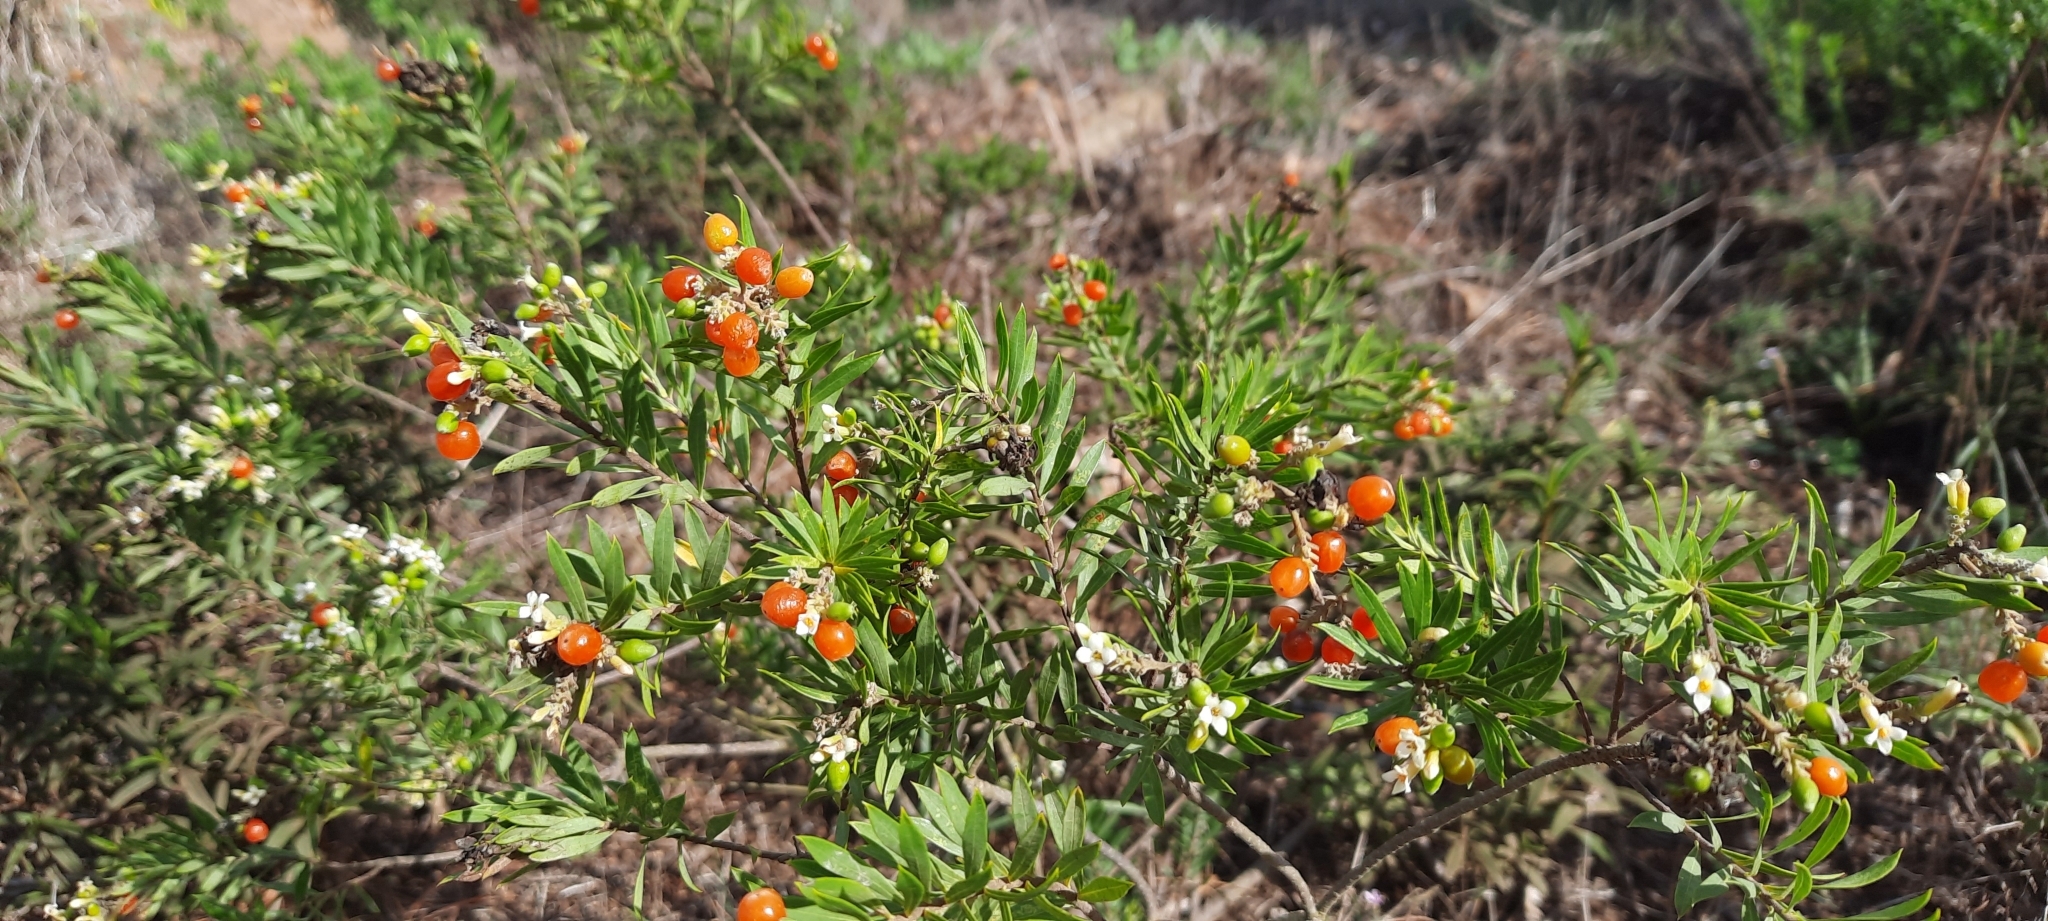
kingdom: Plantae
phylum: Tracheophyta
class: Magnoliopsida
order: Malvales
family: Thymelaeaceae
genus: Daphne
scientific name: Daphne gnidium
